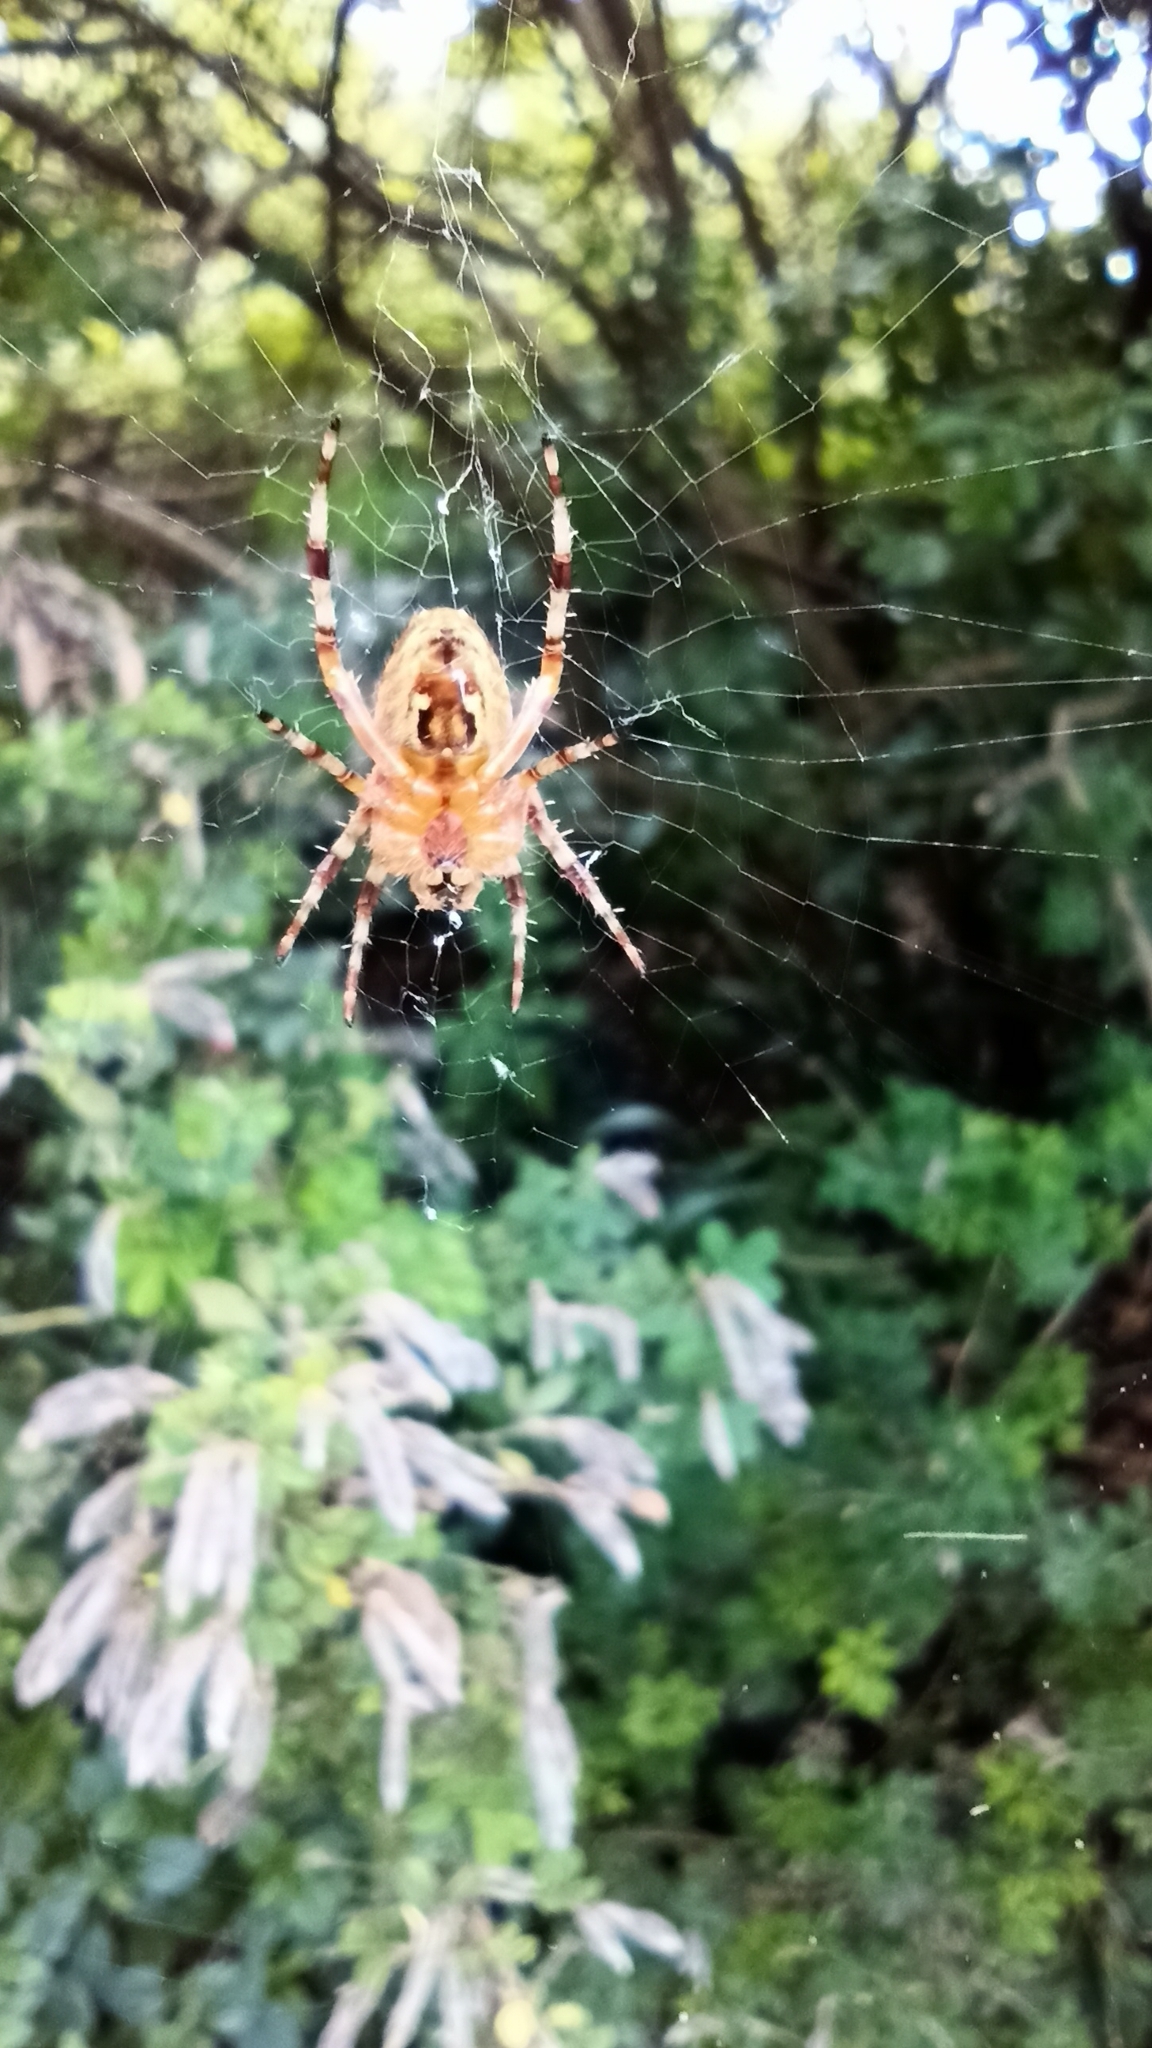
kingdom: Animalia
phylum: Arthropoda
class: Arachnida
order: Araneae
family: Araneidae
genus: Araneus
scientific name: Araneus diadematus
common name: Cross orbweaver
